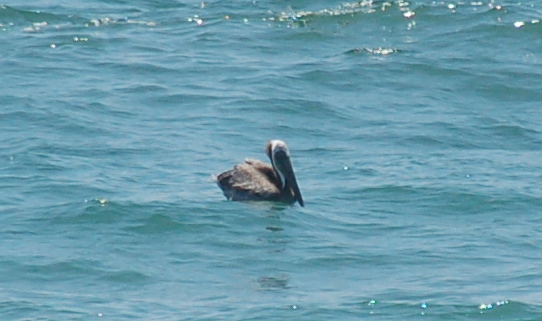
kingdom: Animalia
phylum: Chordata
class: Aves
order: Pelecaniformes
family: Pelecanidae
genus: Pelecanus
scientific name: Pelecanus occidentalis
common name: Brown pelican
